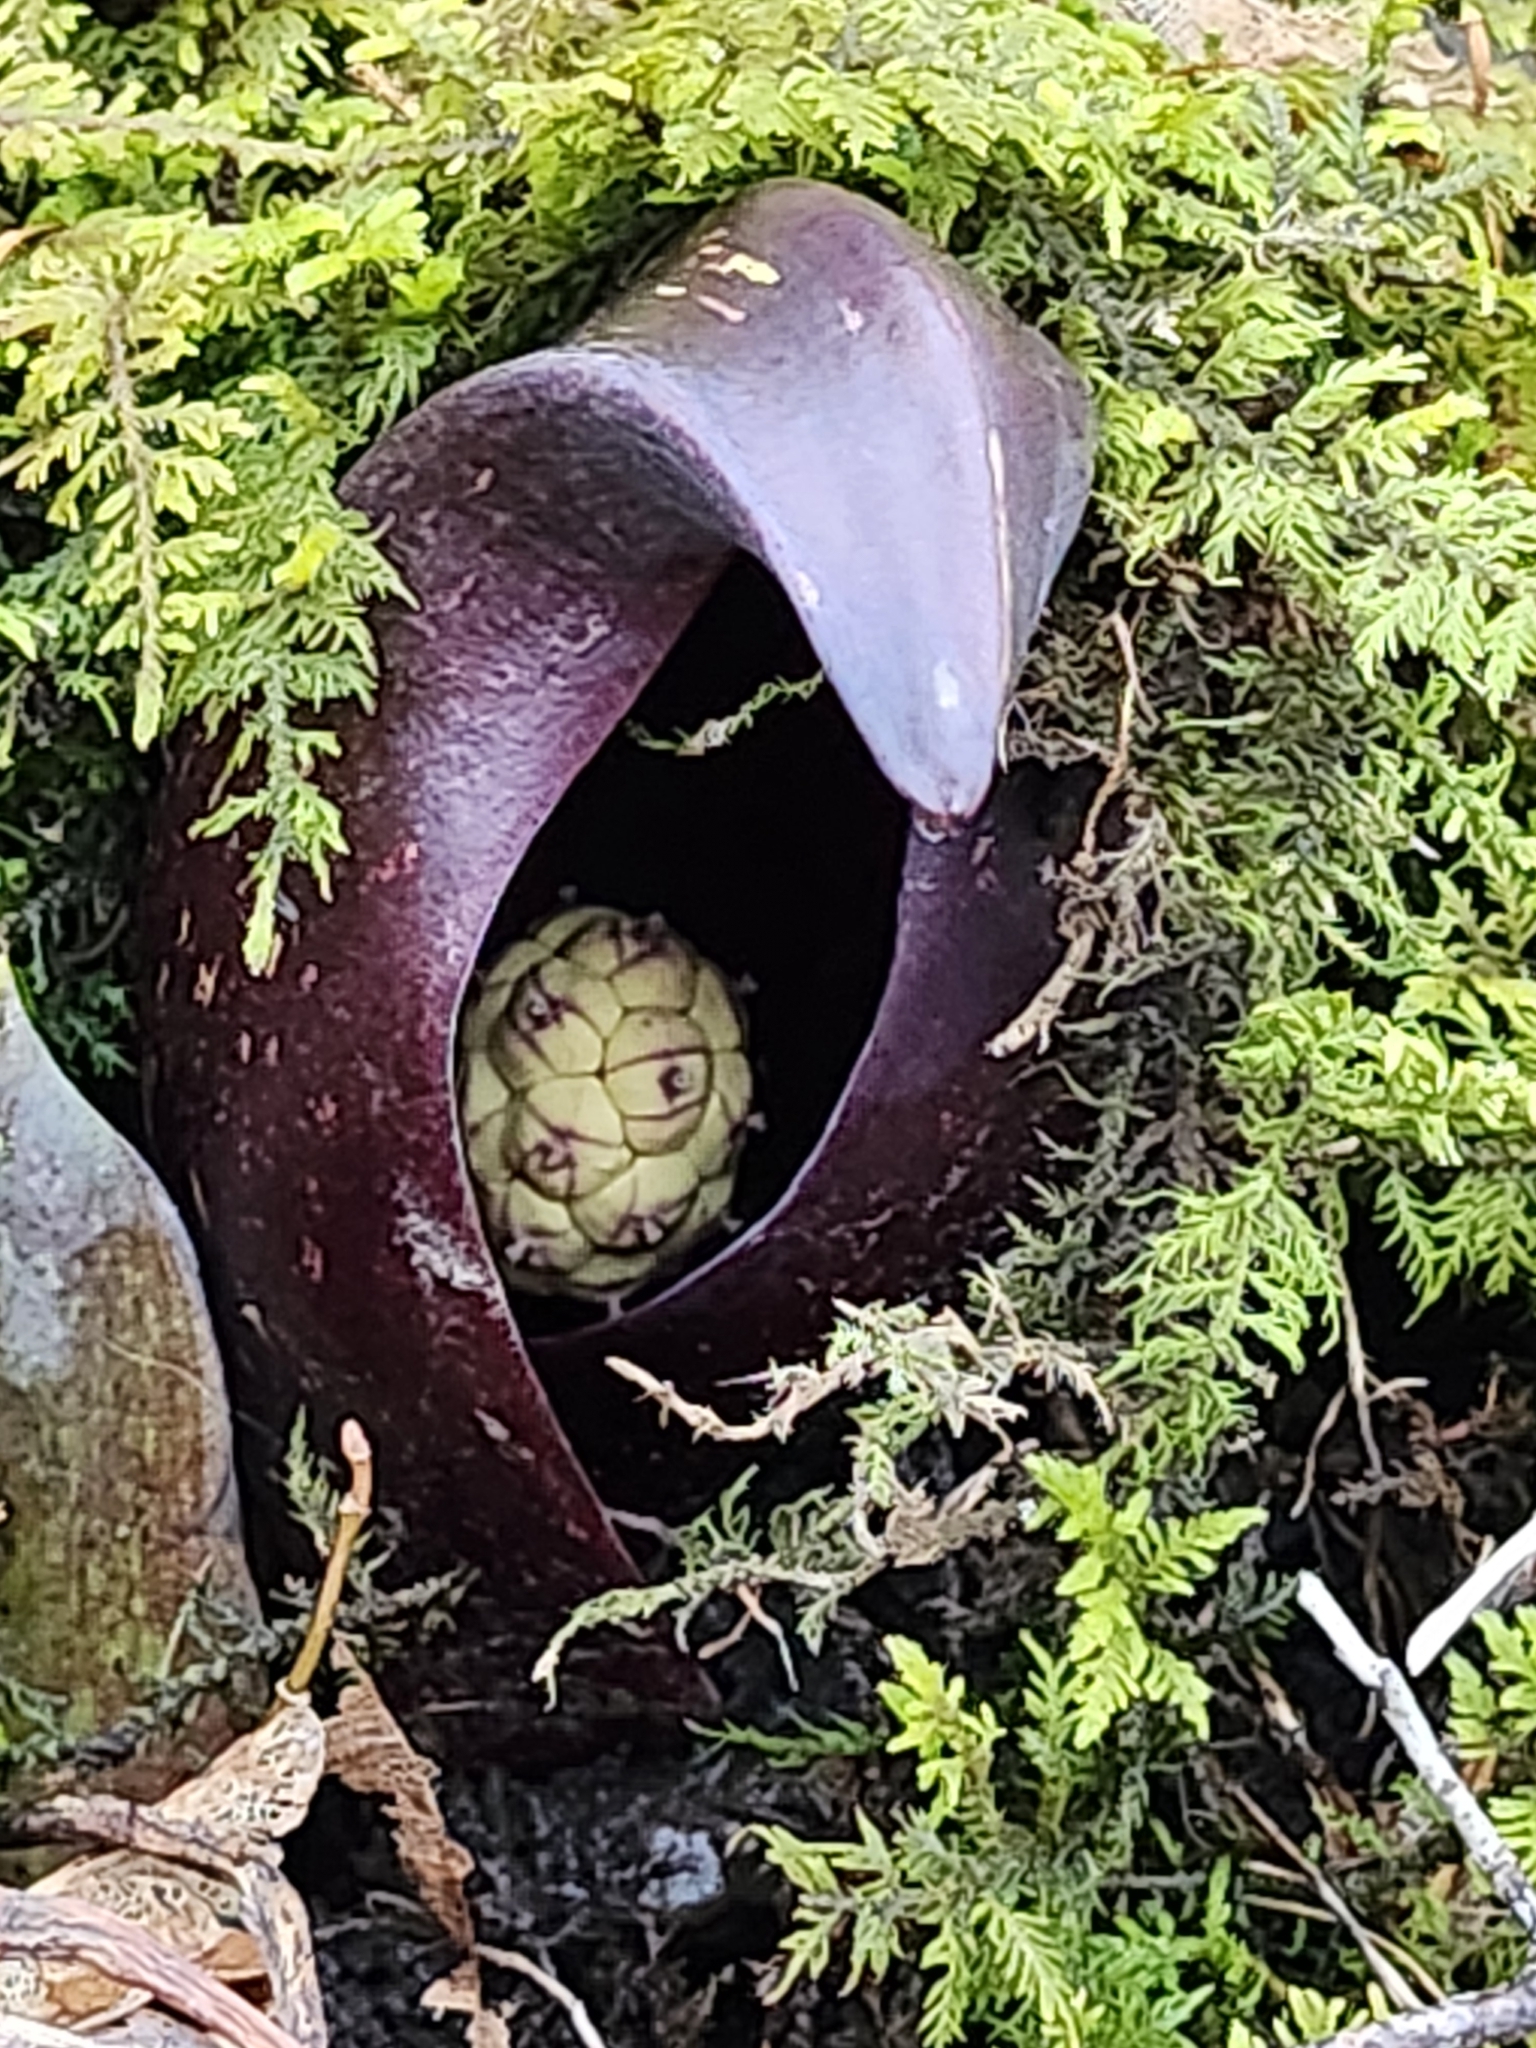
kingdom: Plantae
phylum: Tracheophyta
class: Liliopsida
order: Alismatales
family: Araceae
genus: Symplocarpus
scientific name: Symplocarpus foetidus
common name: Eastern skunk cabbage
